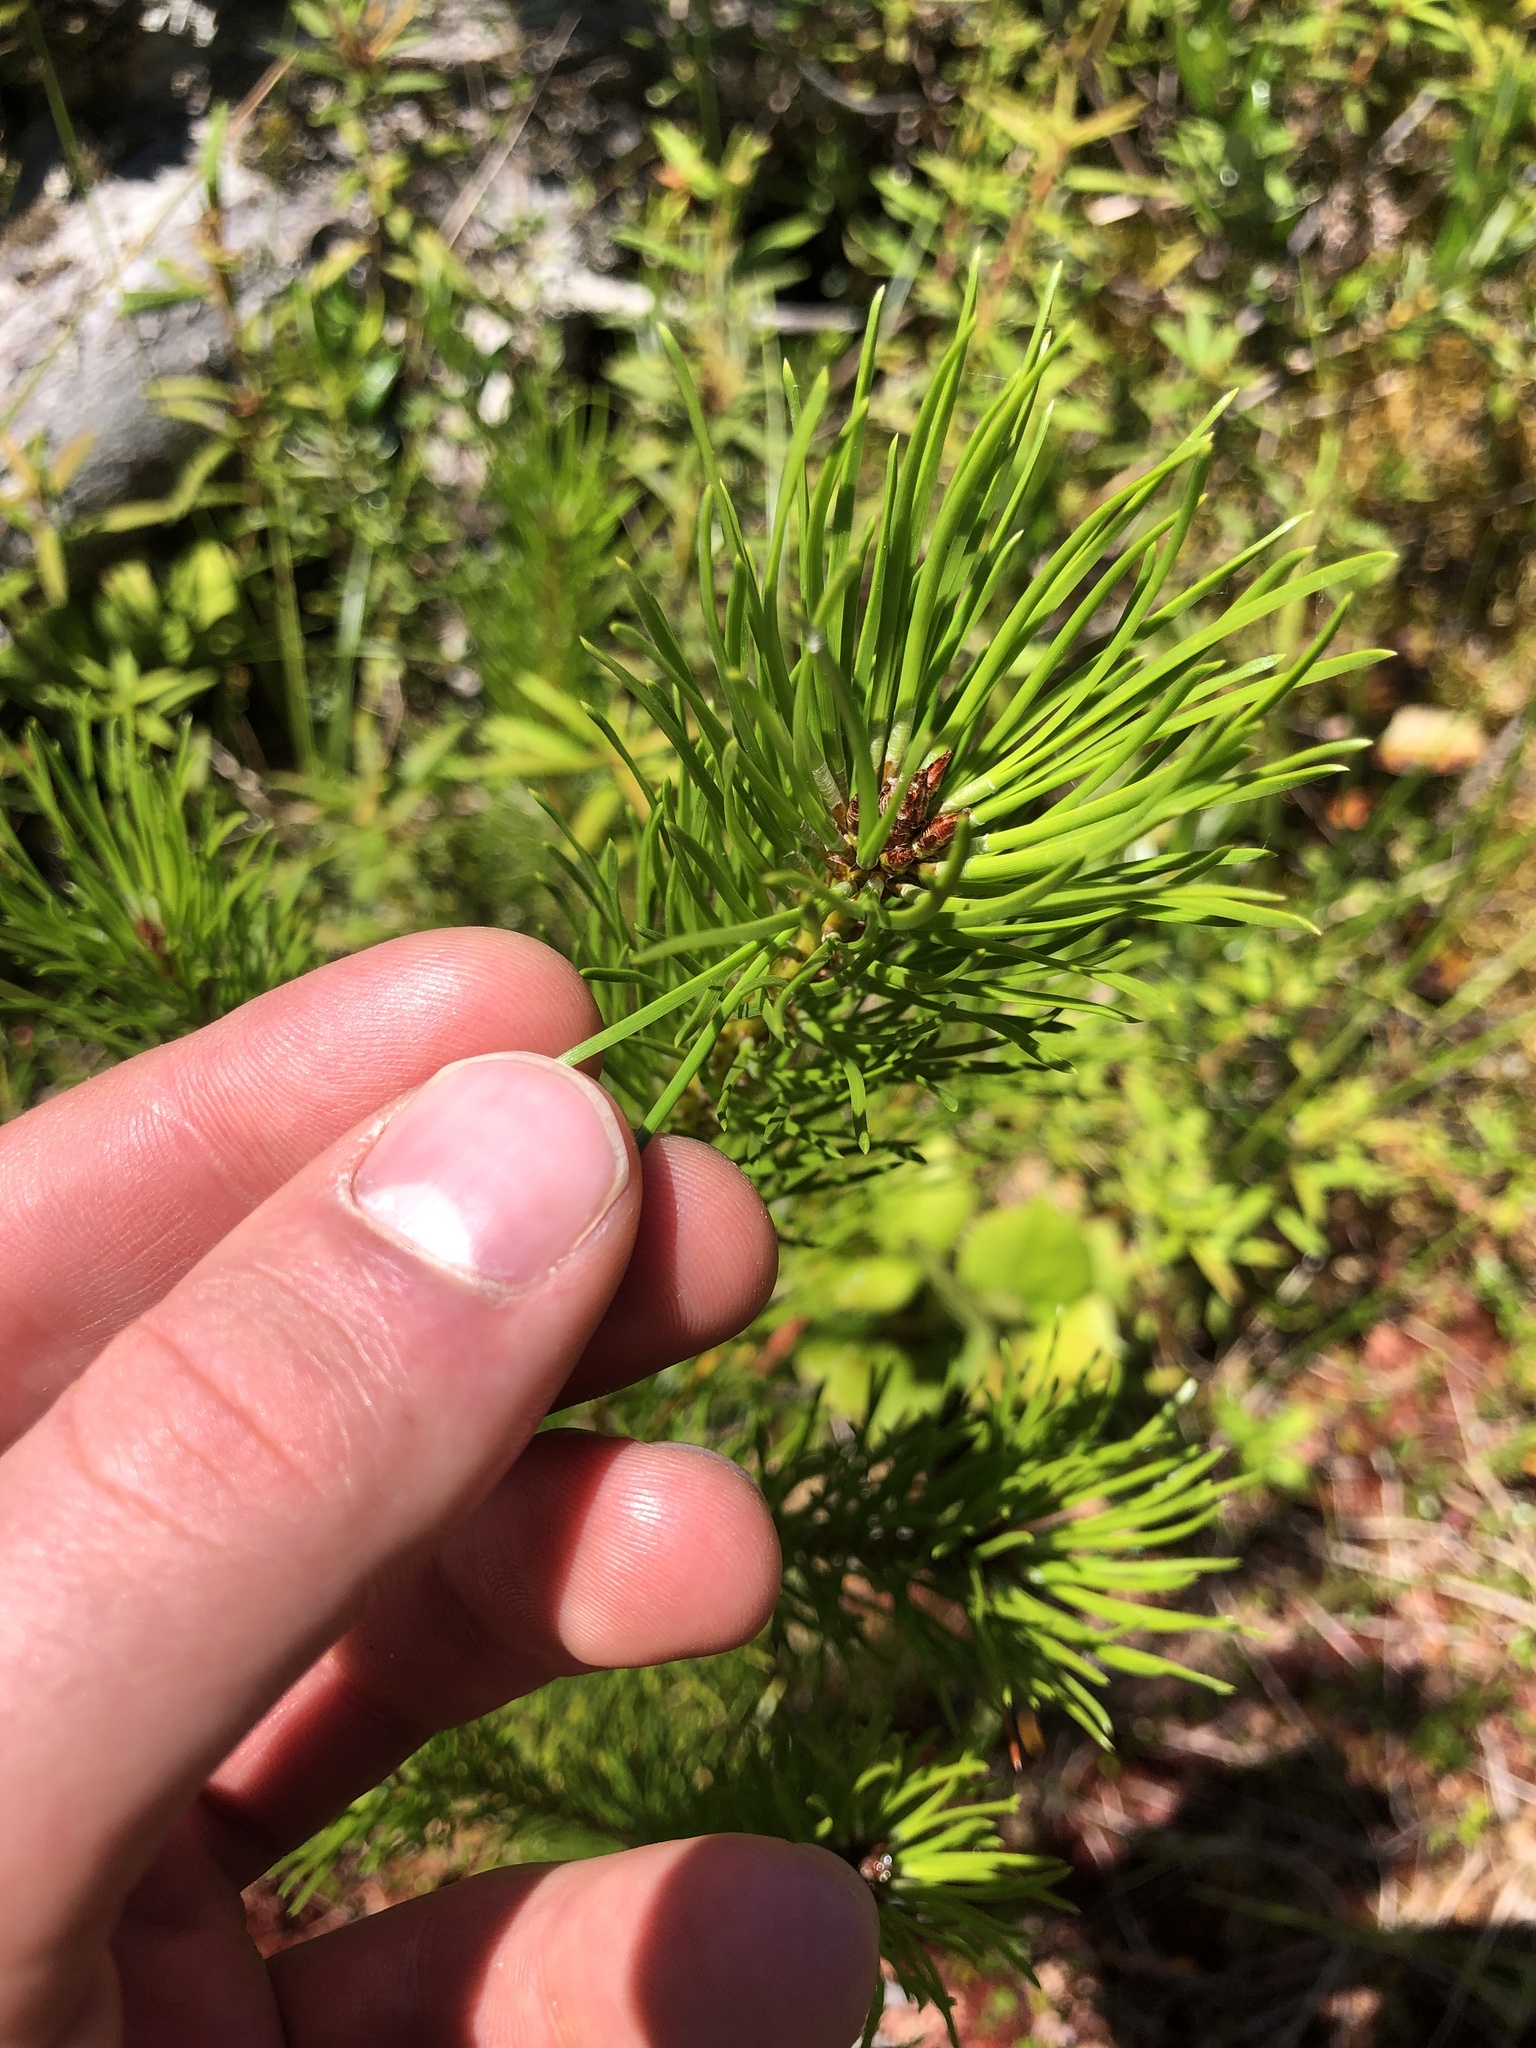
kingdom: Plantae
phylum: Tracheophyta
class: Pinopsida
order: Pinales
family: Pinaceae
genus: Pinus
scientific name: Pinus contorta
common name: Lodgepole pine
